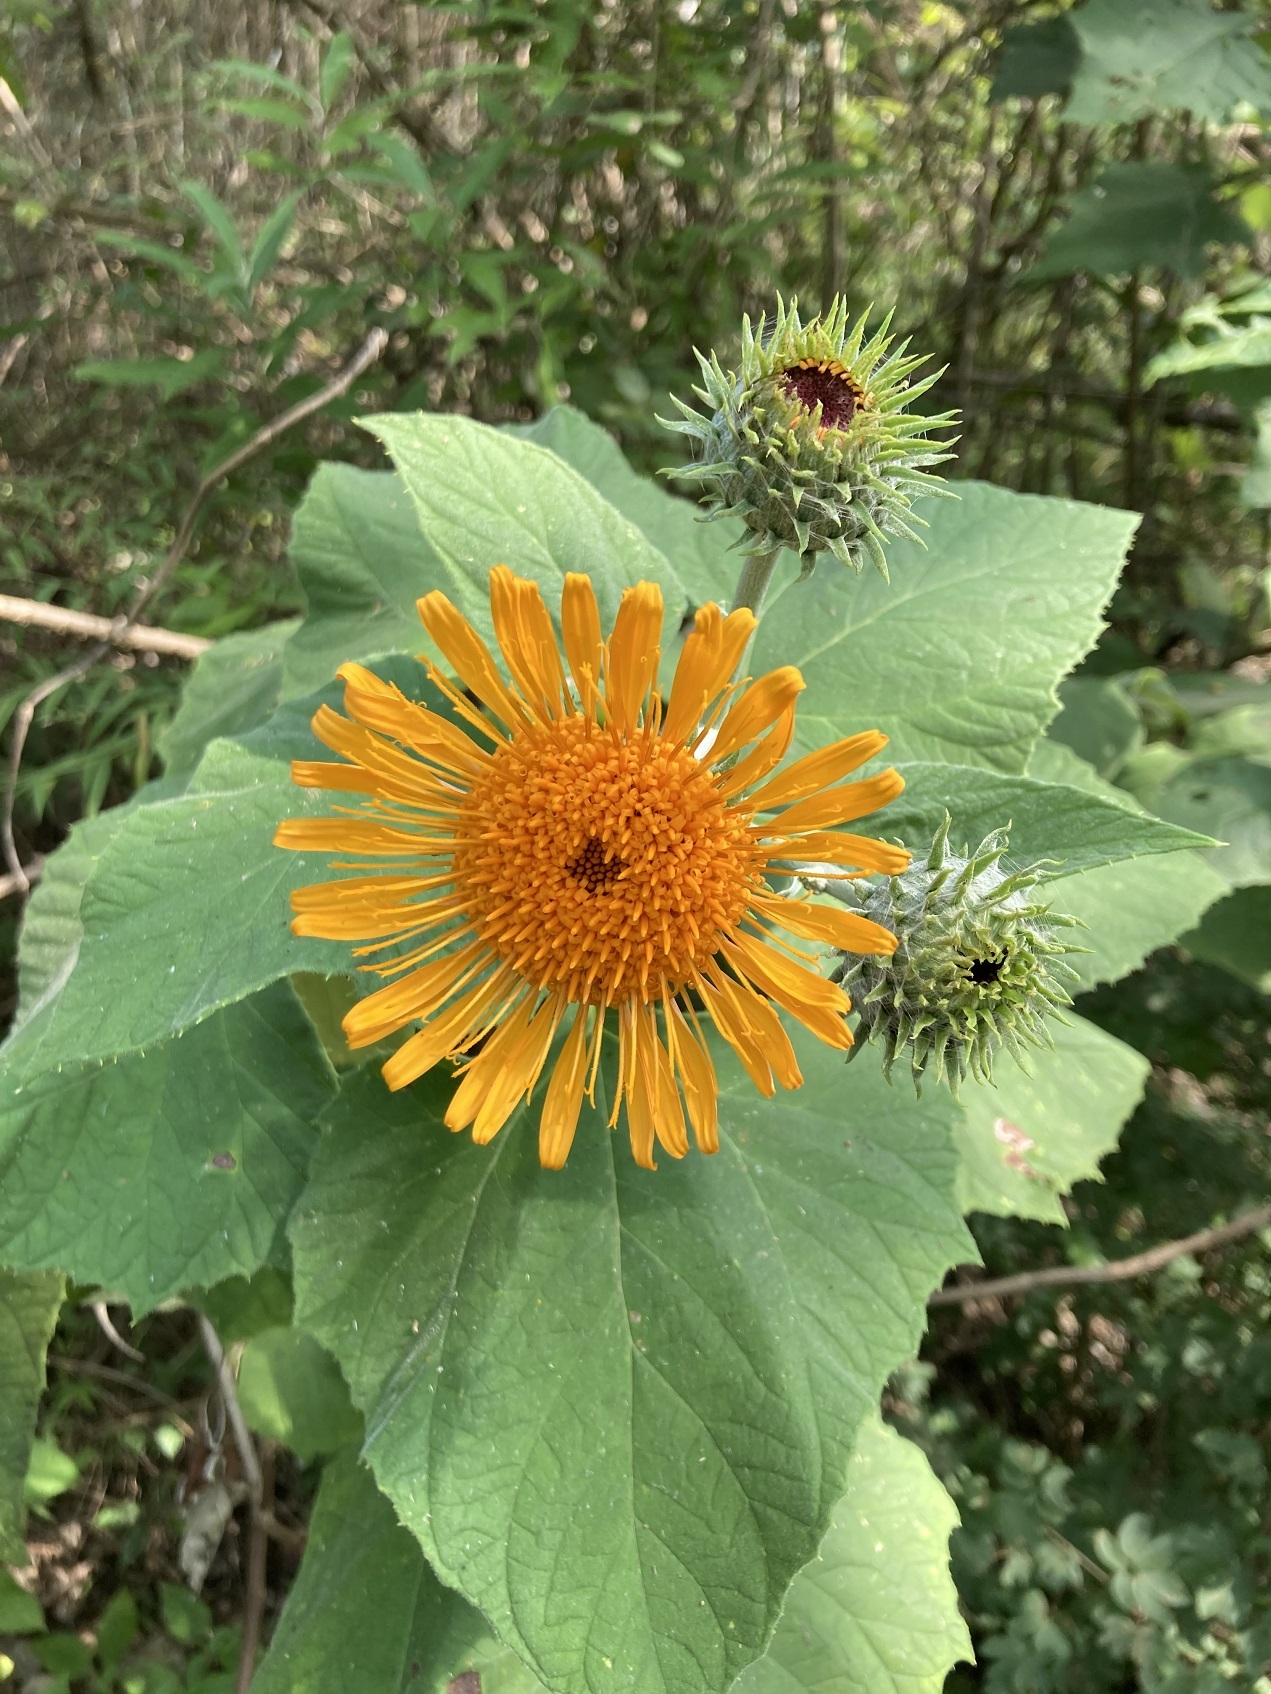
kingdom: Plantae
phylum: Tracheophyta
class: Magnoliopsida
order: Asterales
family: Asteraceae
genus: Sinclairia
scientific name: Sinclairia andrieuxii
